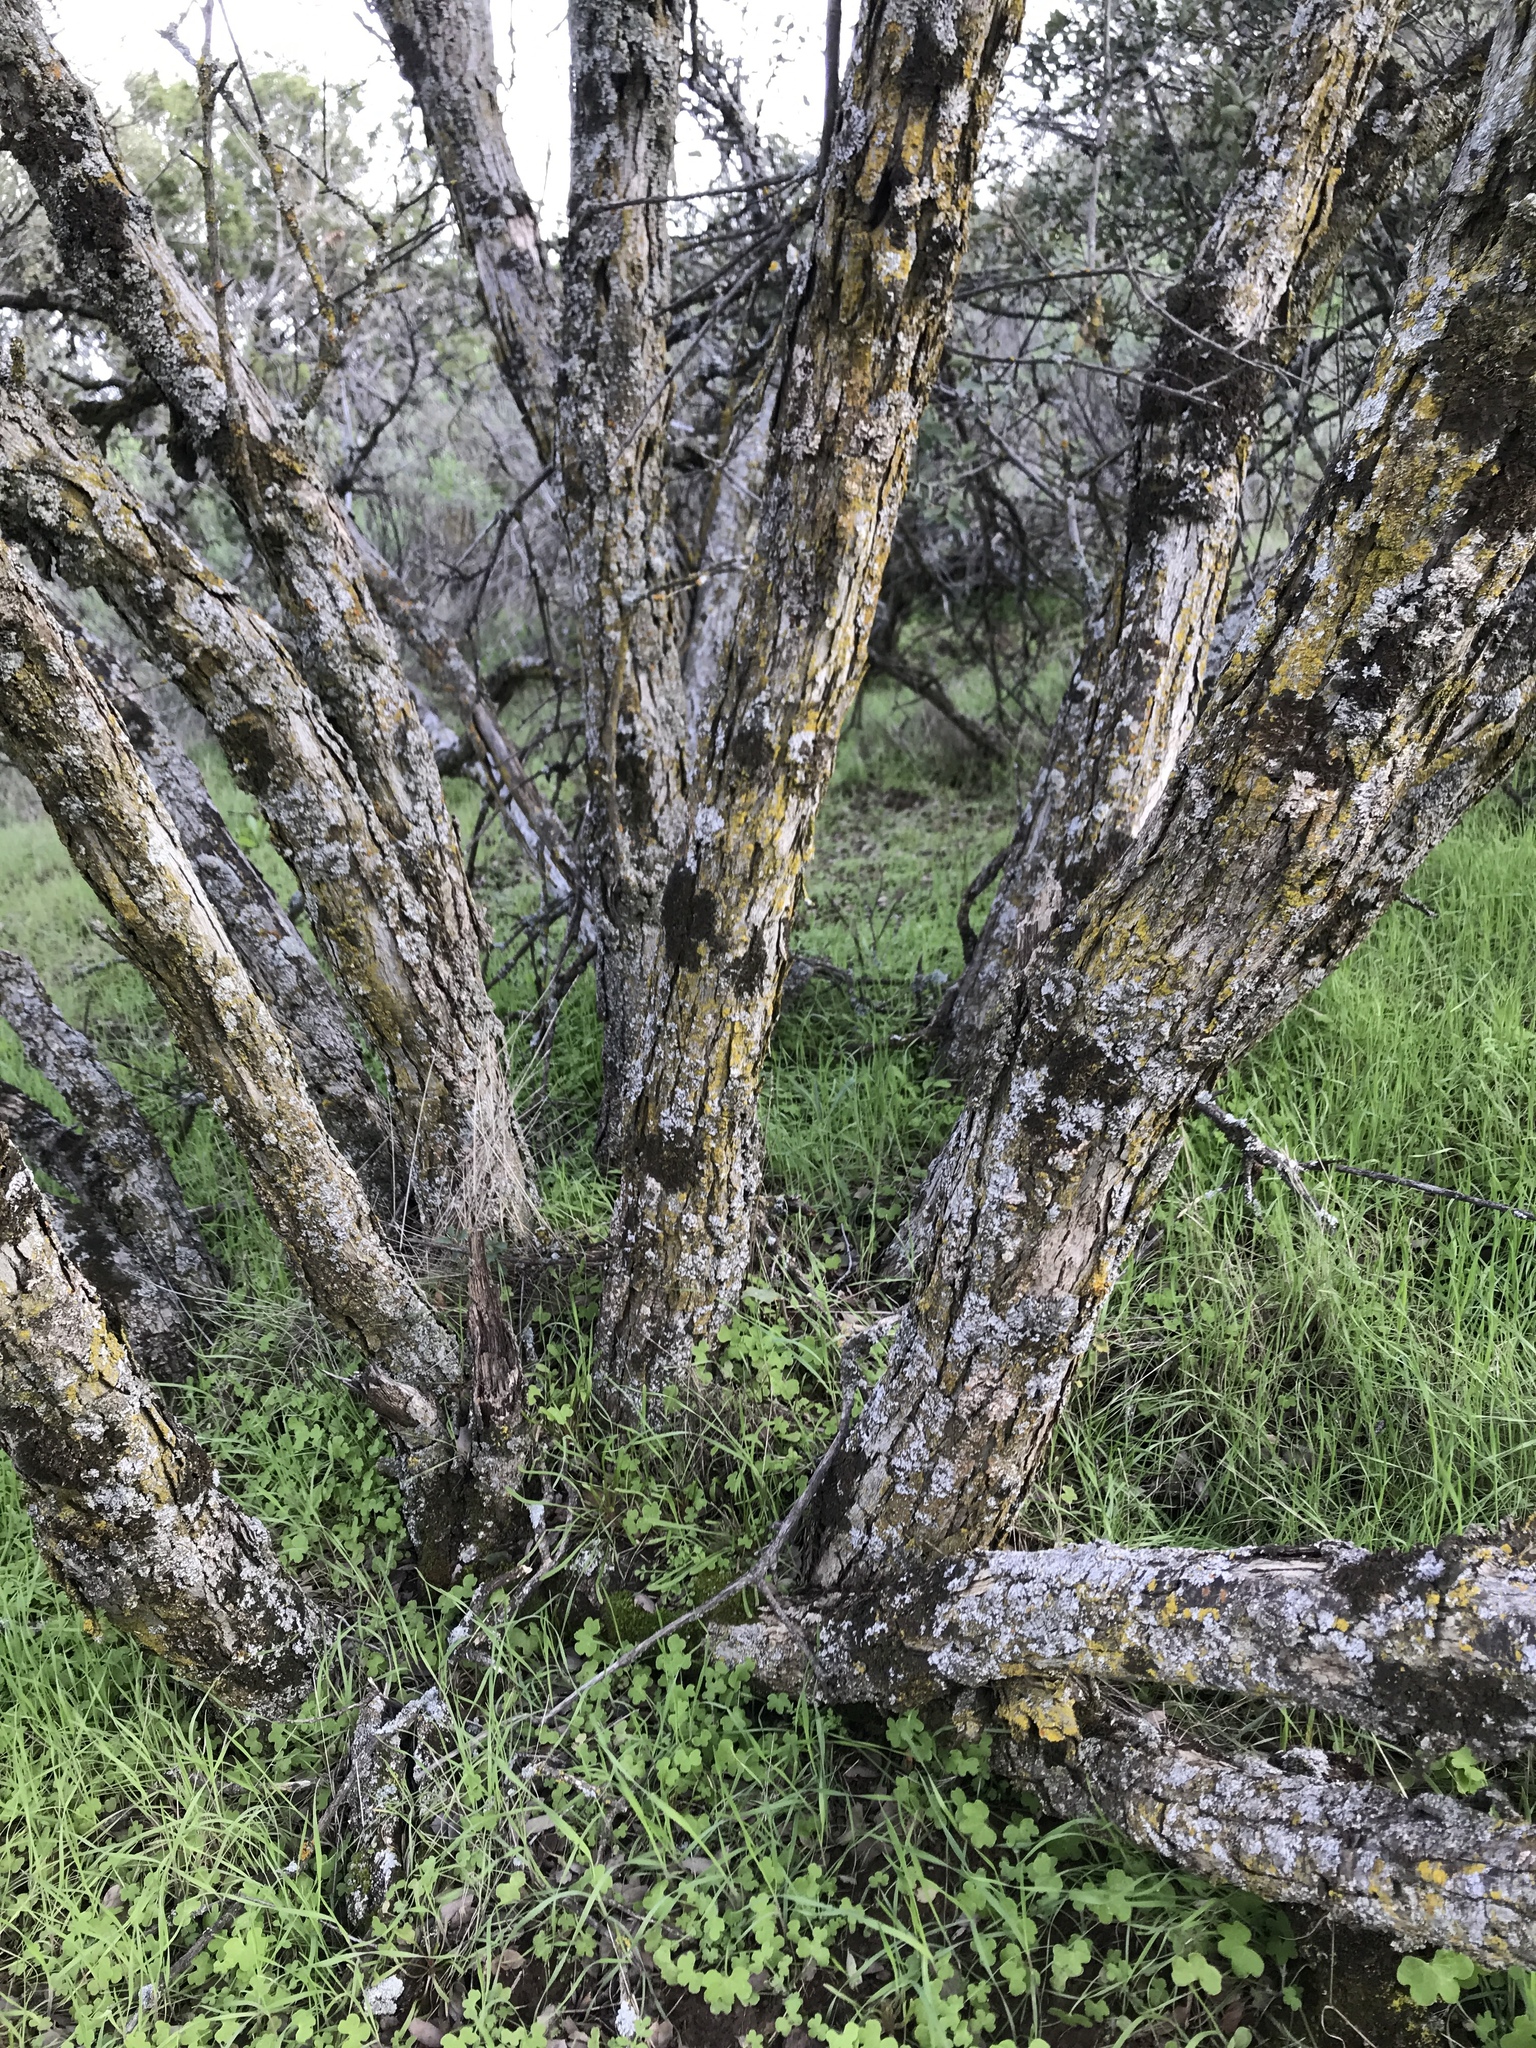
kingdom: Plantae
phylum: Tracheophyta
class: Magnoliopsida
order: Fagales
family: Fagaceae
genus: Quercus
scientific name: Quercus john-tuckeri
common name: Tucker's oak
